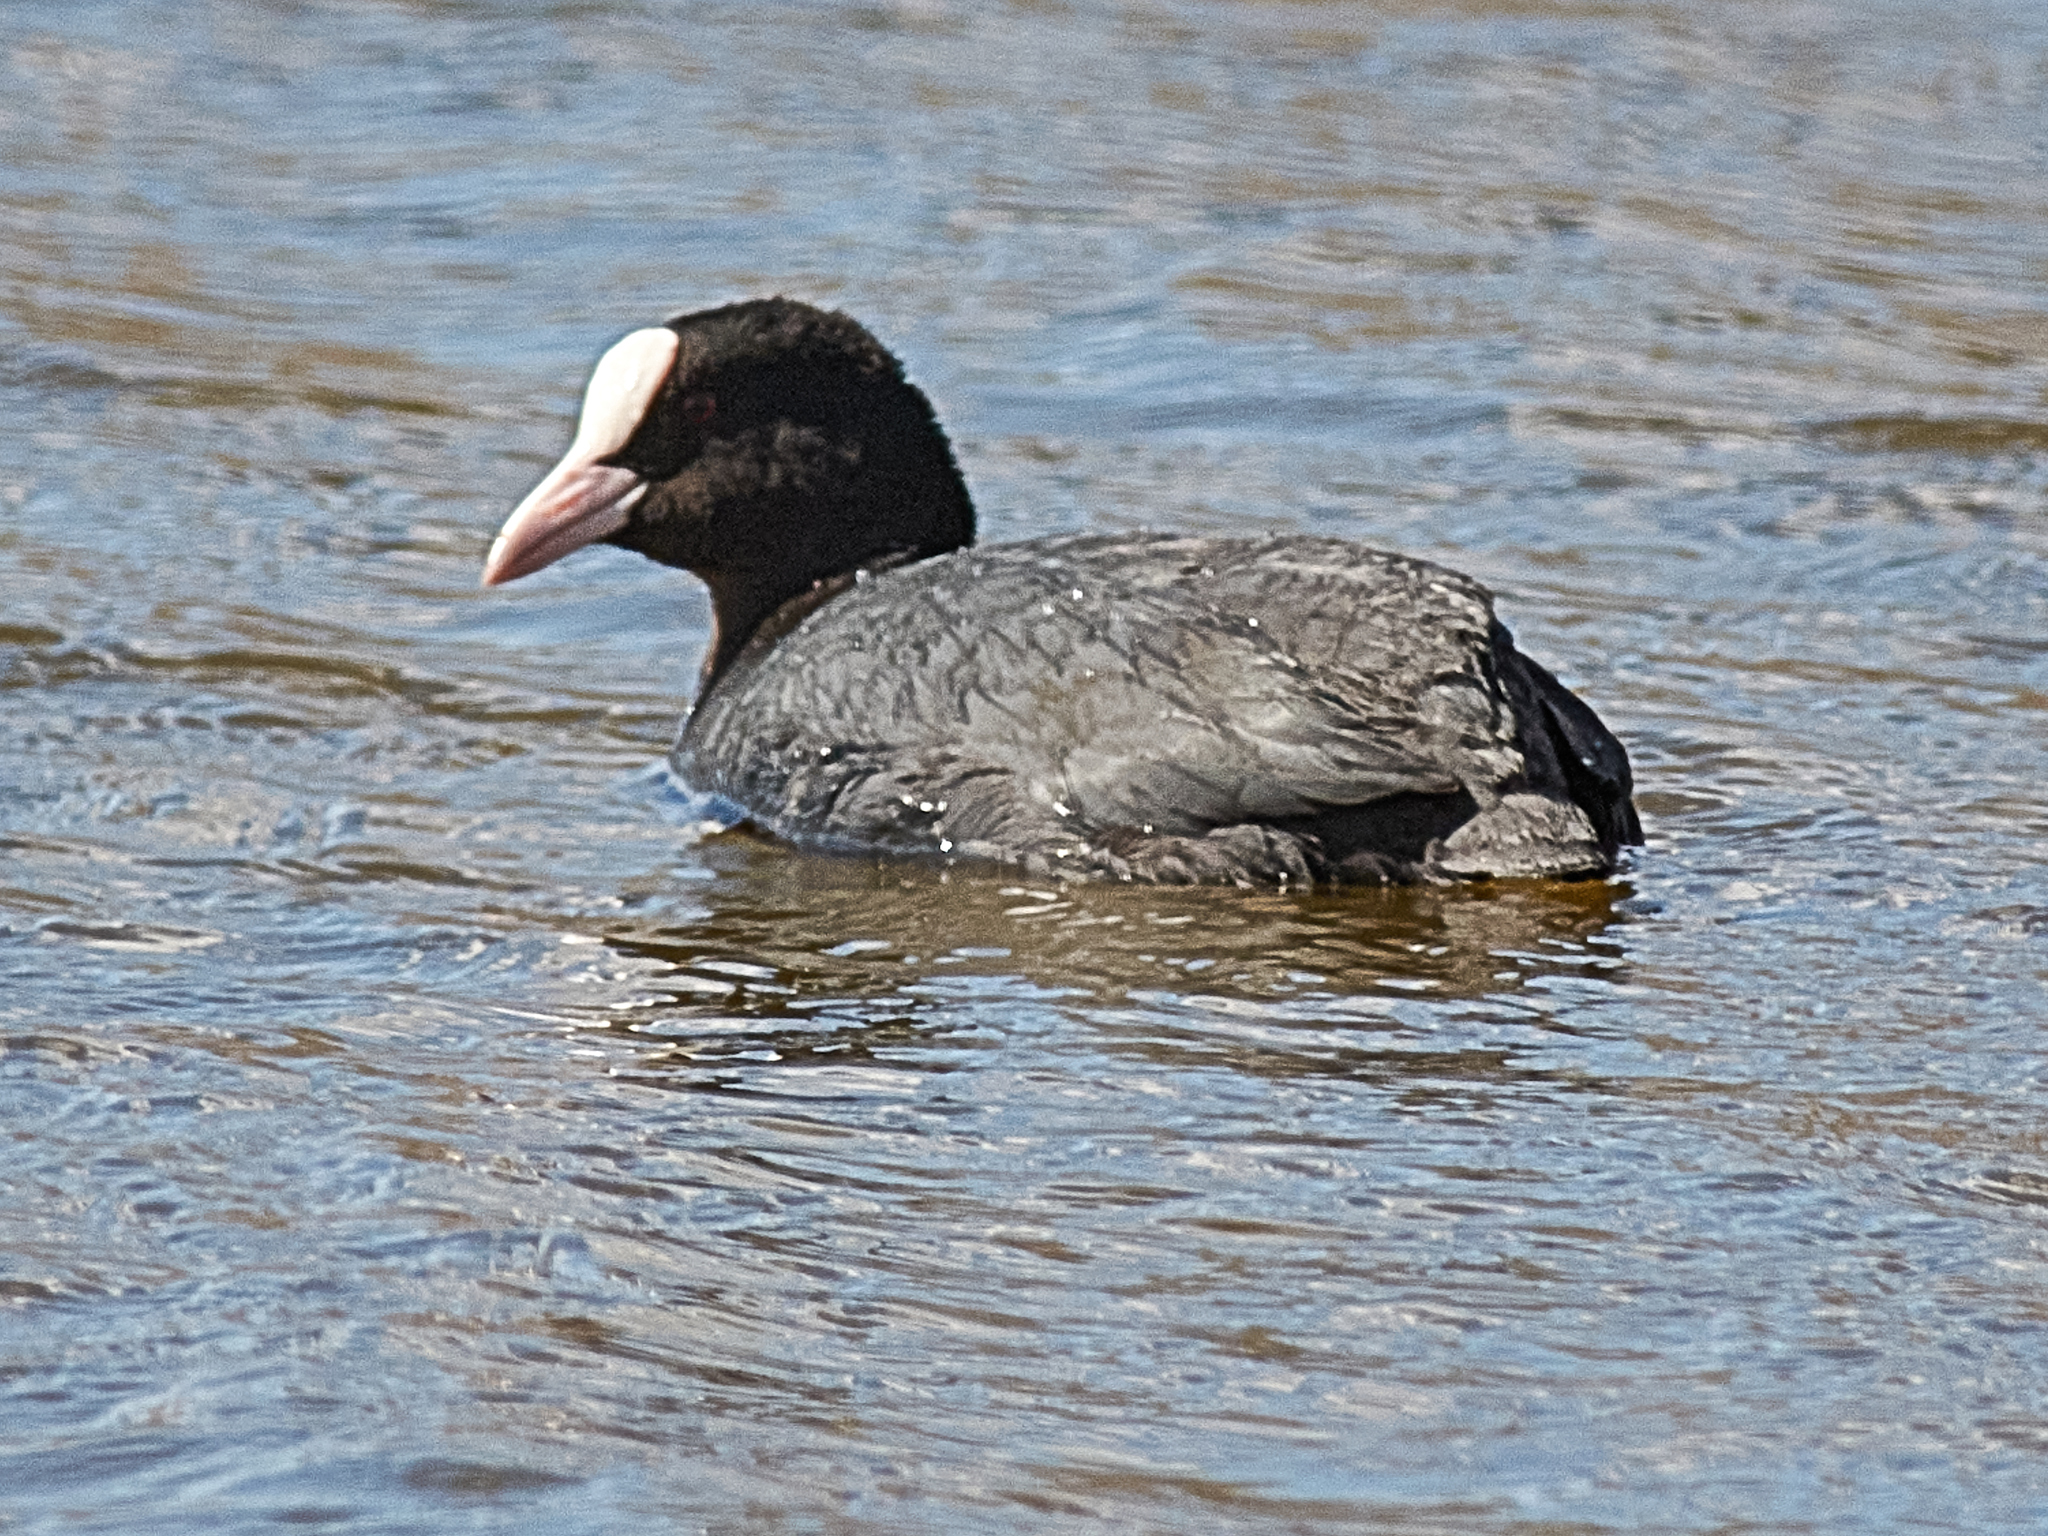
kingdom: Animalia
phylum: Chordata
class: Aves
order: Gruiformes
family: Rallidae
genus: Fulica
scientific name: Fulica atra
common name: Eurasian coot
